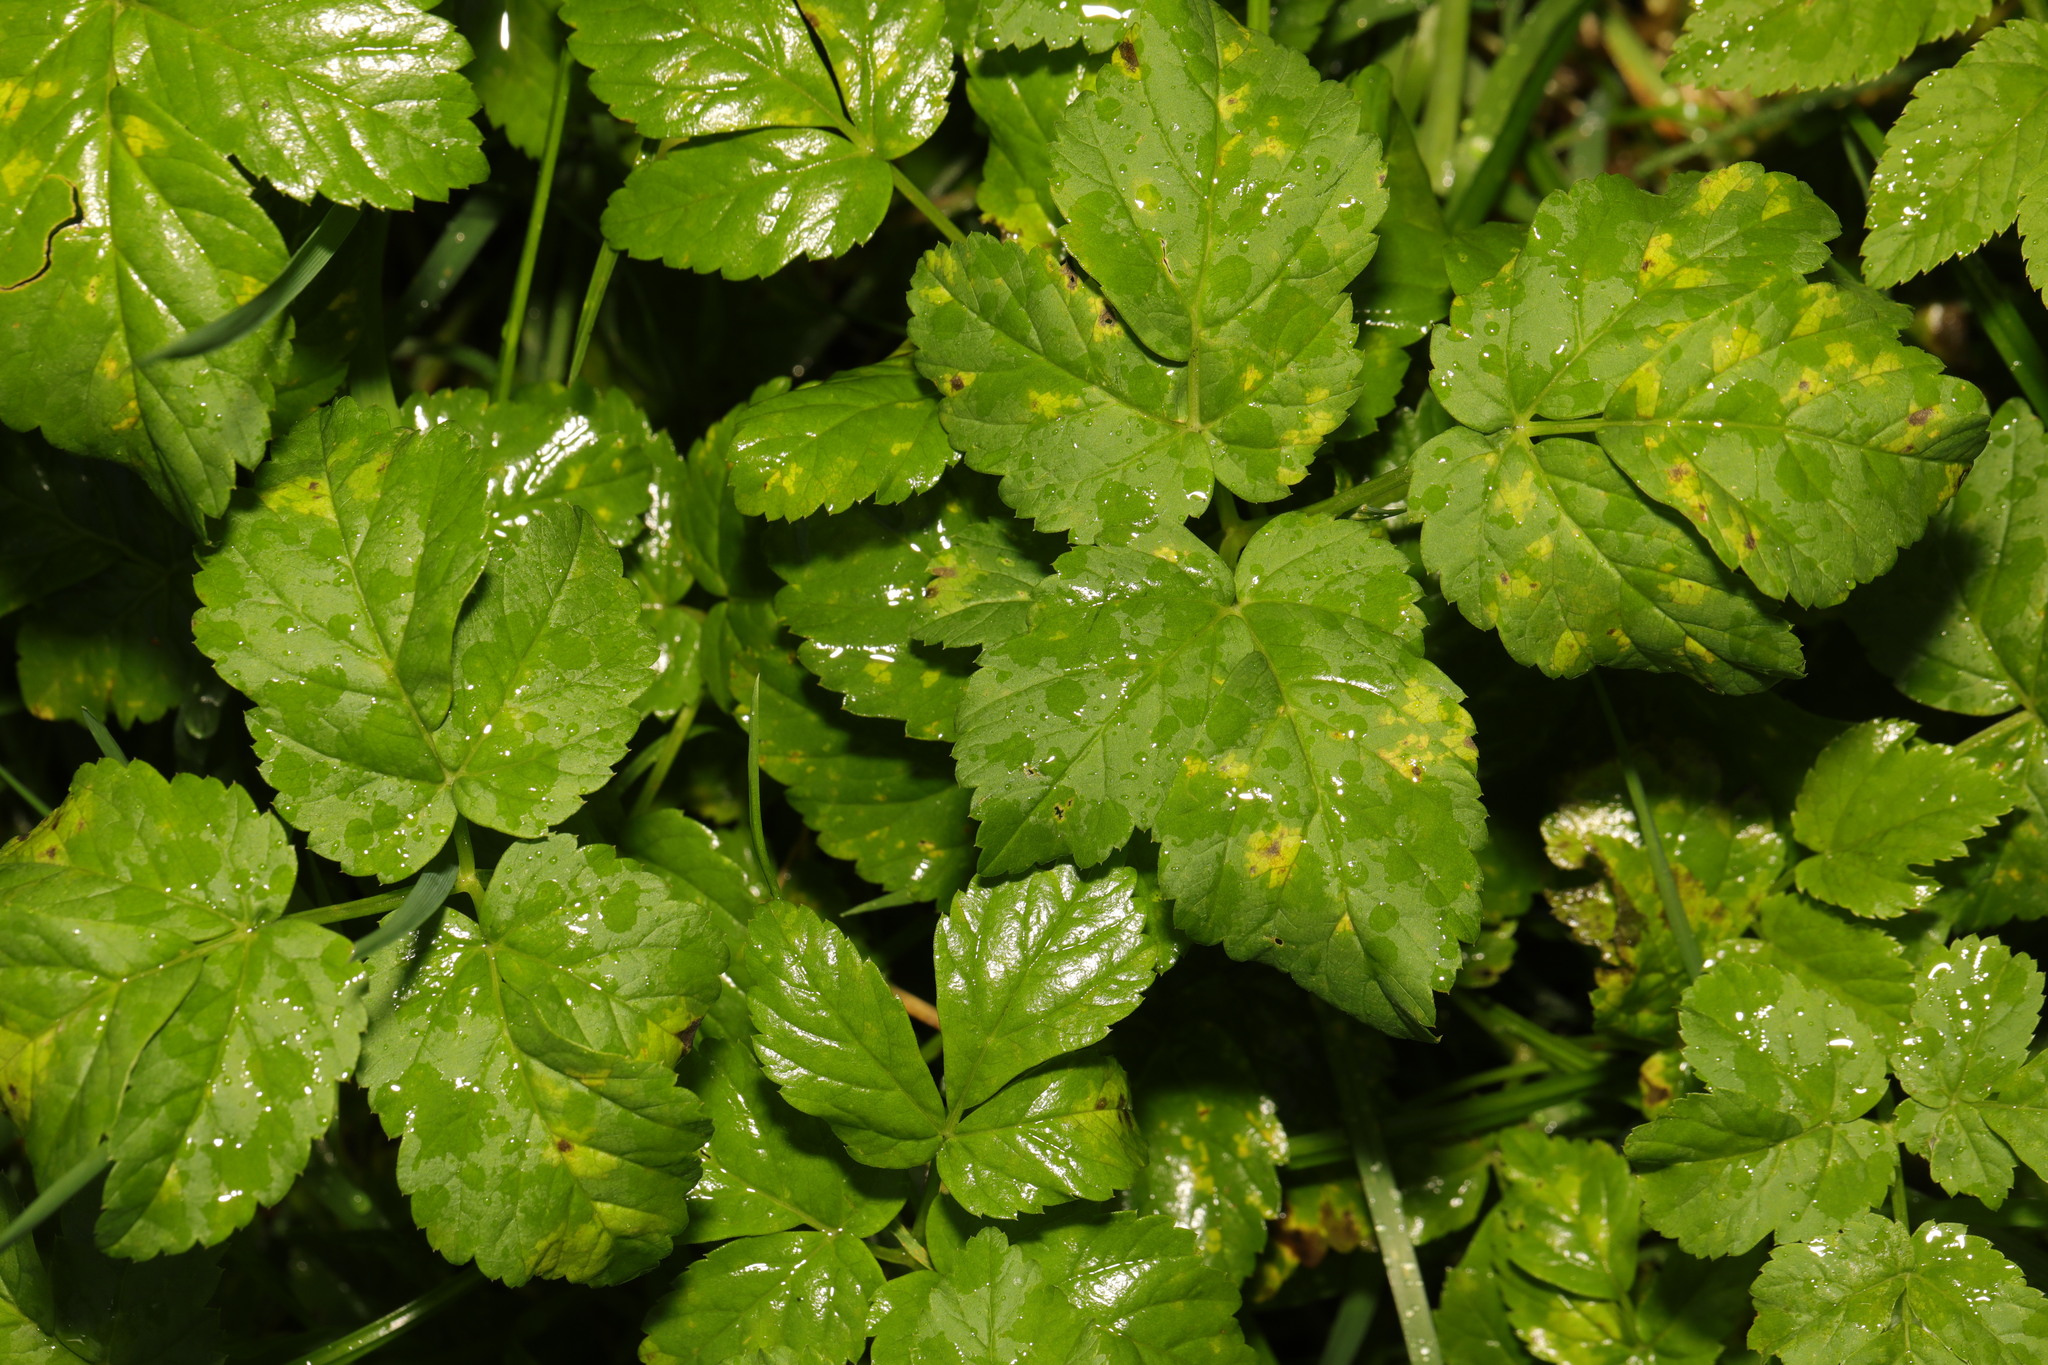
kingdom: Plantae
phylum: Tracheophyta
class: Magnoliopsida
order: Apiales
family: Apiaceae
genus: Aegopodium
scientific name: Aegopodium podagraria
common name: Ground-elder
